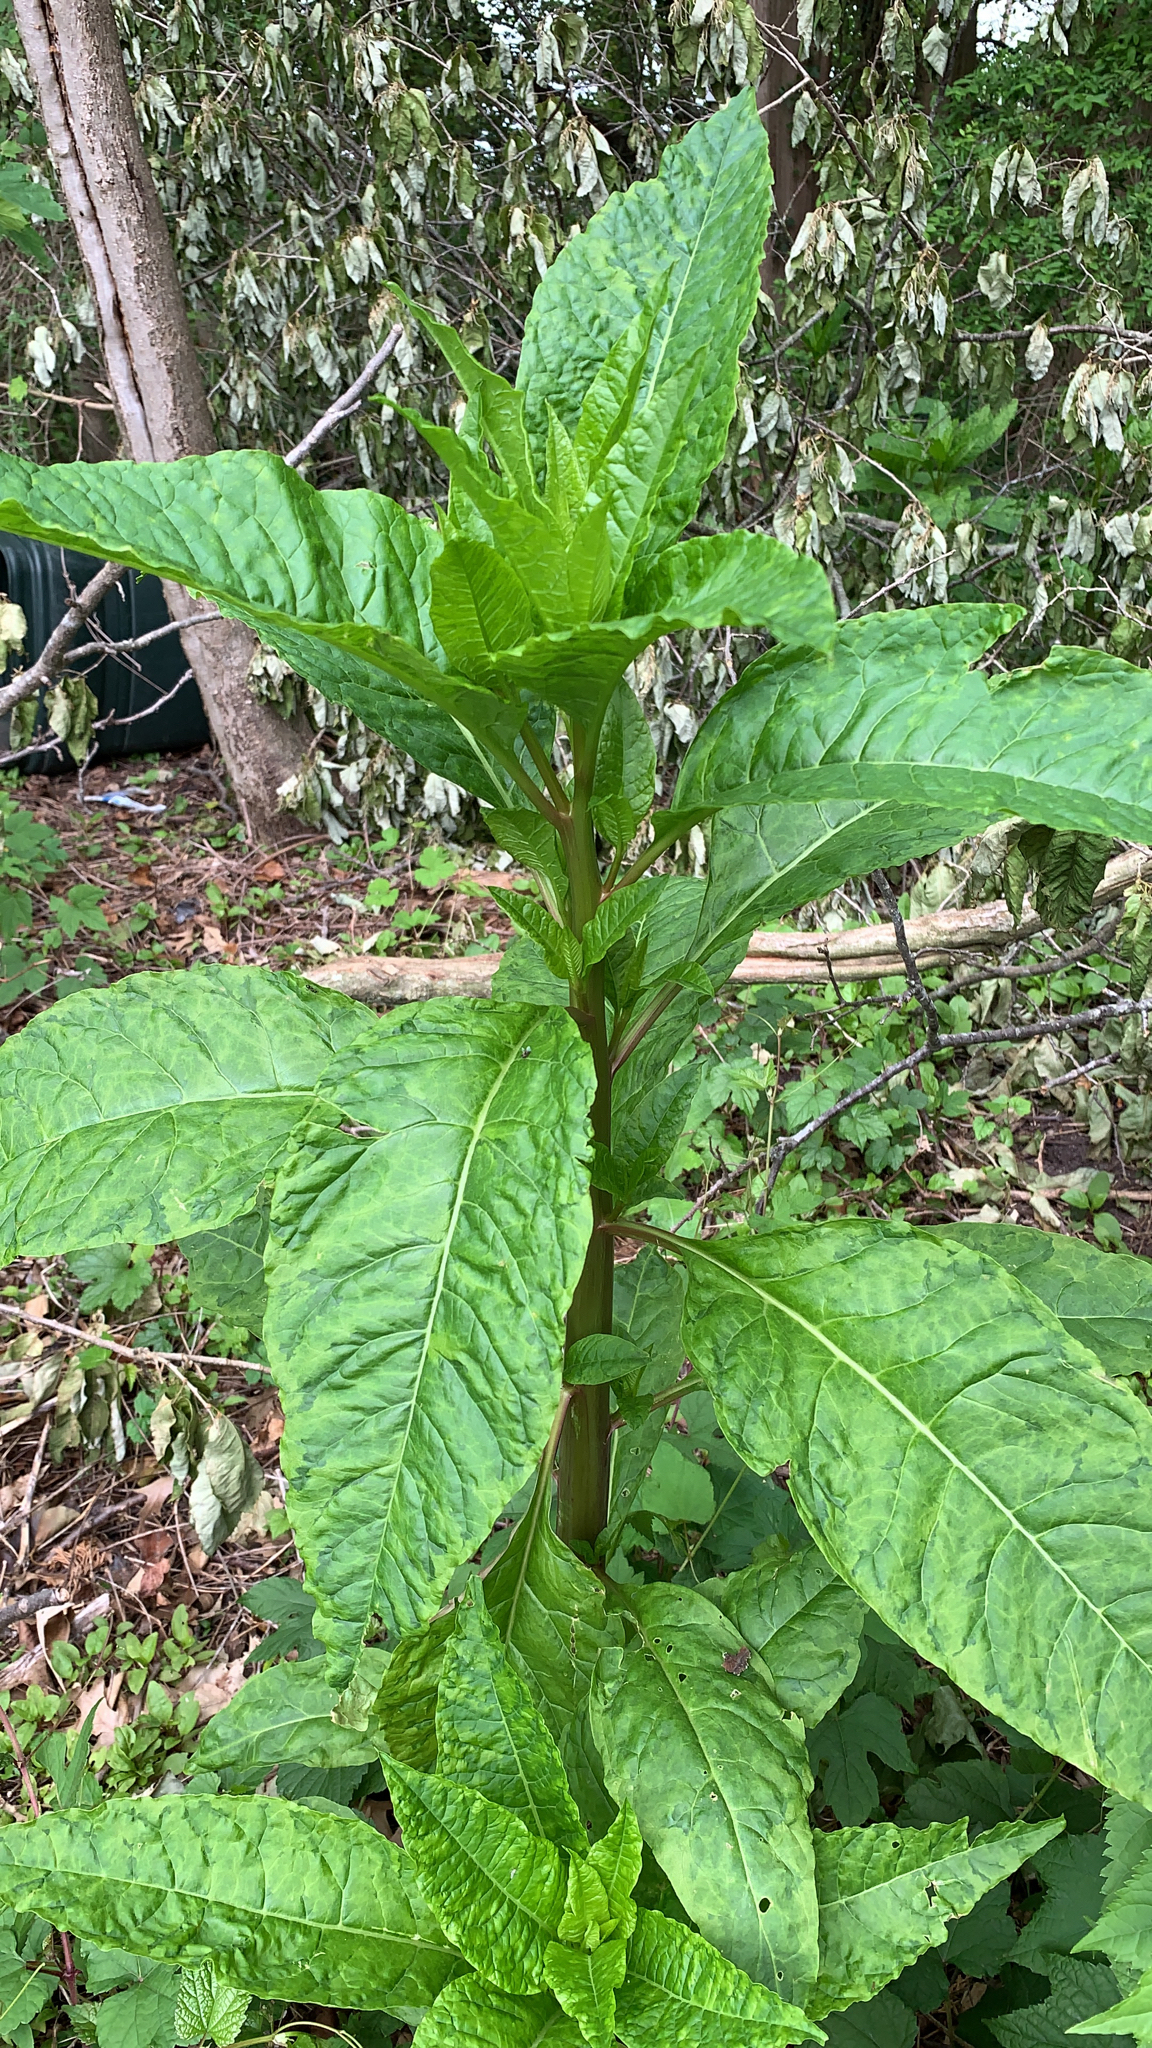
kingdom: Plantae
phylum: Tracheophyta
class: Magnoliopsida
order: Caryophyllales
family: Phytolaccaceae
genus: Phytolacca
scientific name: Phytolacca americana
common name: American pokeweed
